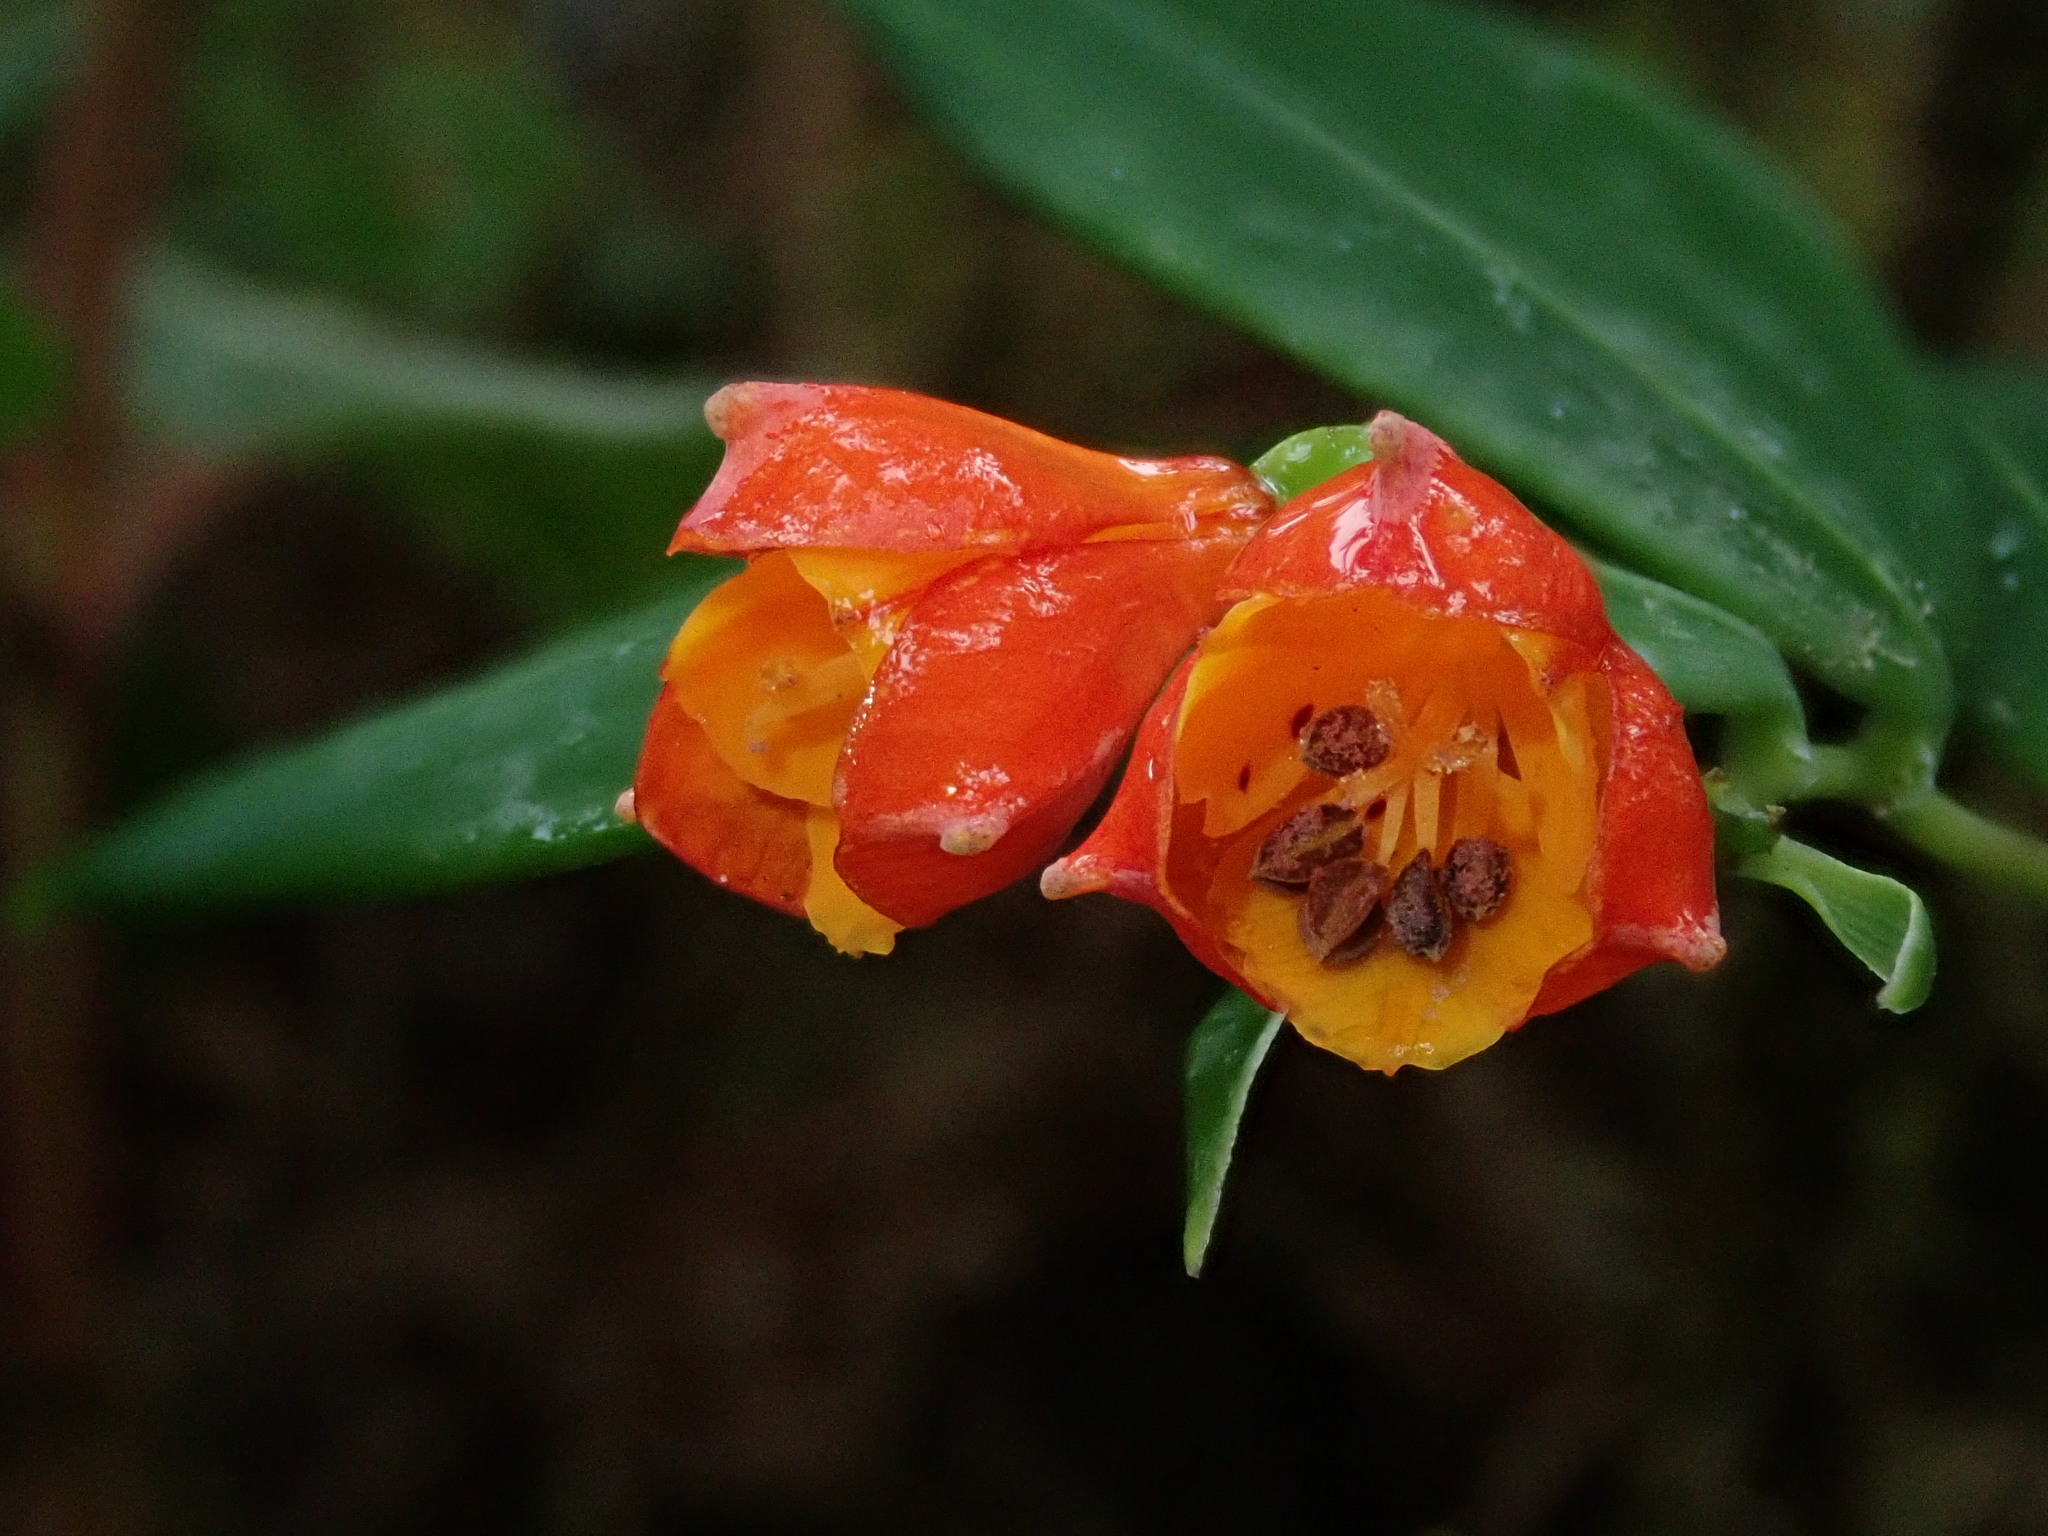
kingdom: Plantae
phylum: Tracheophyta
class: Liliopsida
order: Liliales
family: Alstroemeriaceae
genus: Bomarea
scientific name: Bomarea distichifolia
